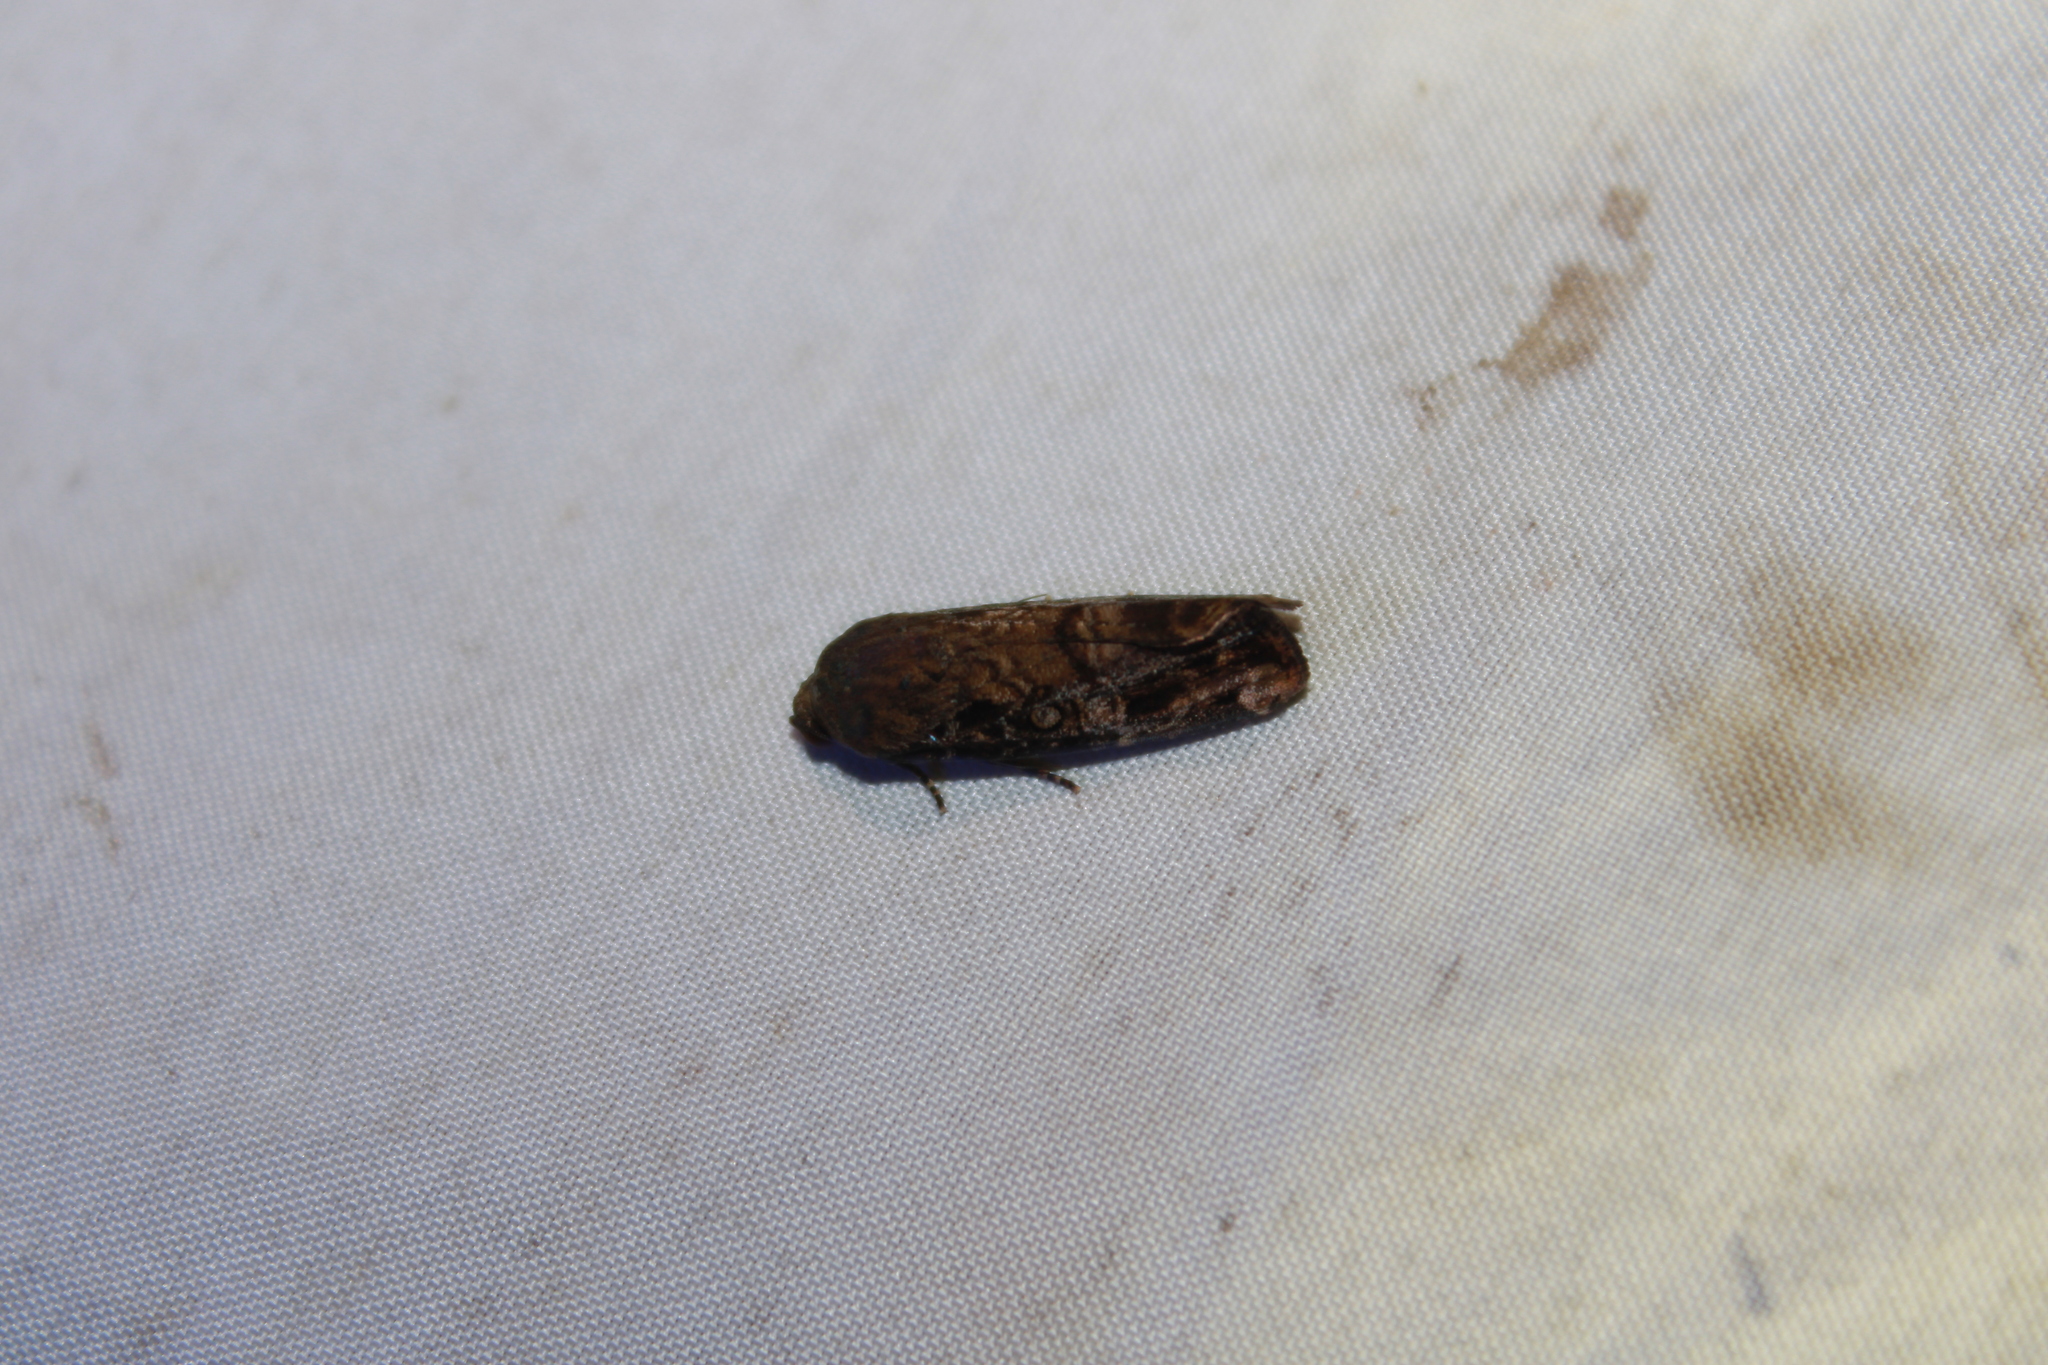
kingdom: Animalia
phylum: Arthropoda
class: Insecta
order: Lepidoptera
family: Noctuidae
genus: Magusa
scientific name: Magusa orbifera
